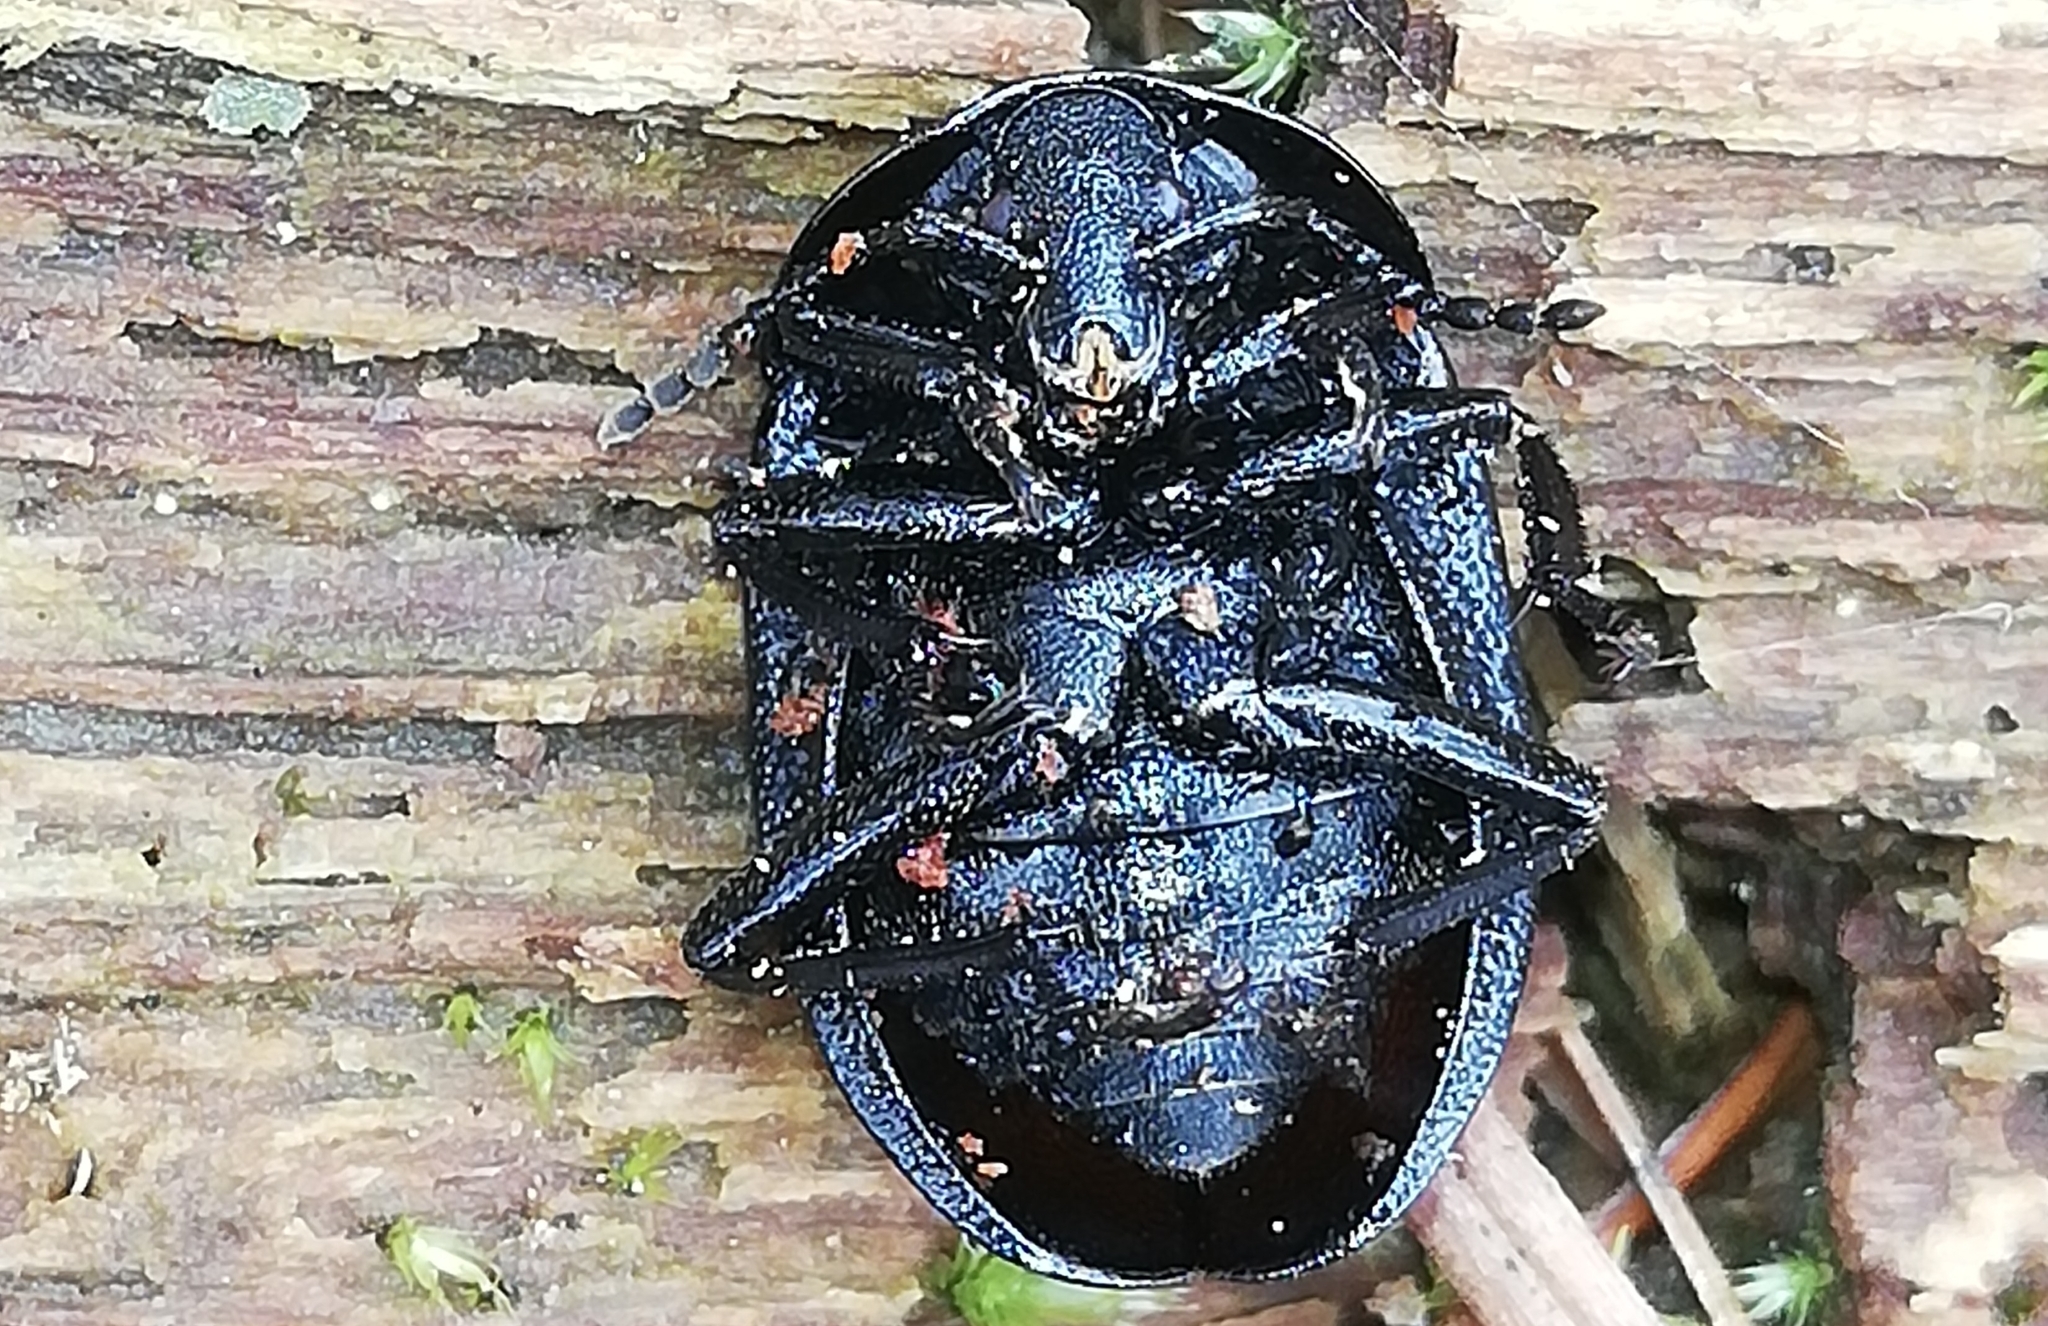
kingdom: Animalia
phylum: Arthropoda
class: Insecta
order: Coleoptera
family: Staphylinidae
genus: Silpha
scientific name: Silpha atrata
